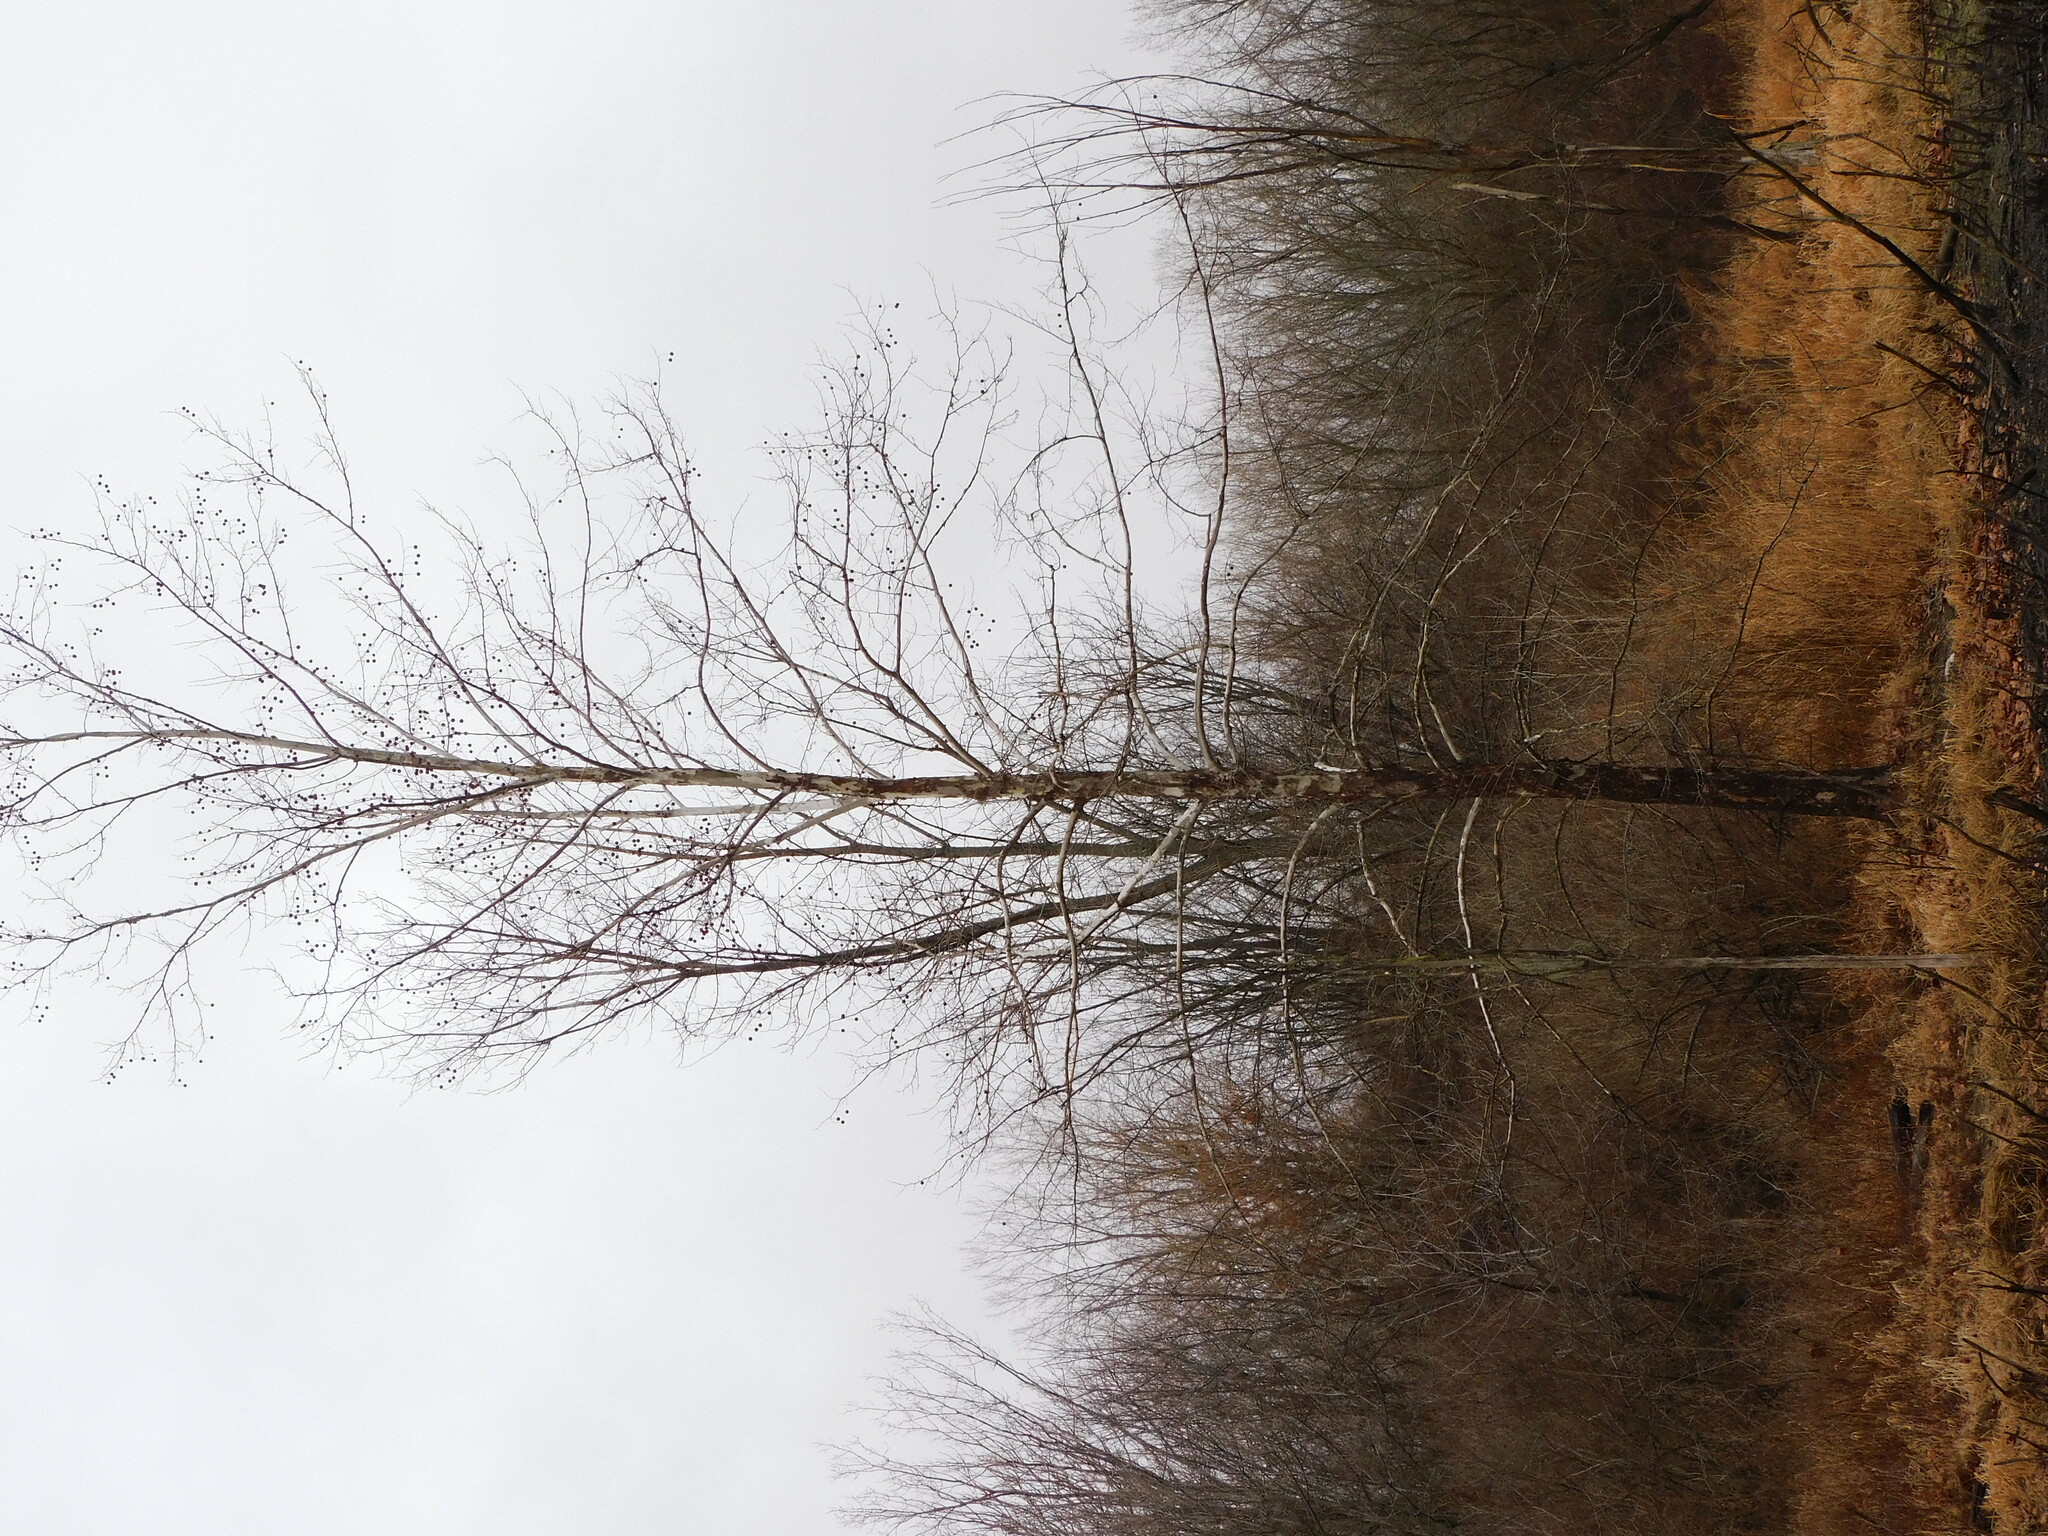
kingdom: Plantae
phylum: Tracheophyta
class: Magnoliopsida
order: Proteales
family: Platanaceae
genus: Platanus
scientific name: Platanus occidentalis
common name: American sycamore
